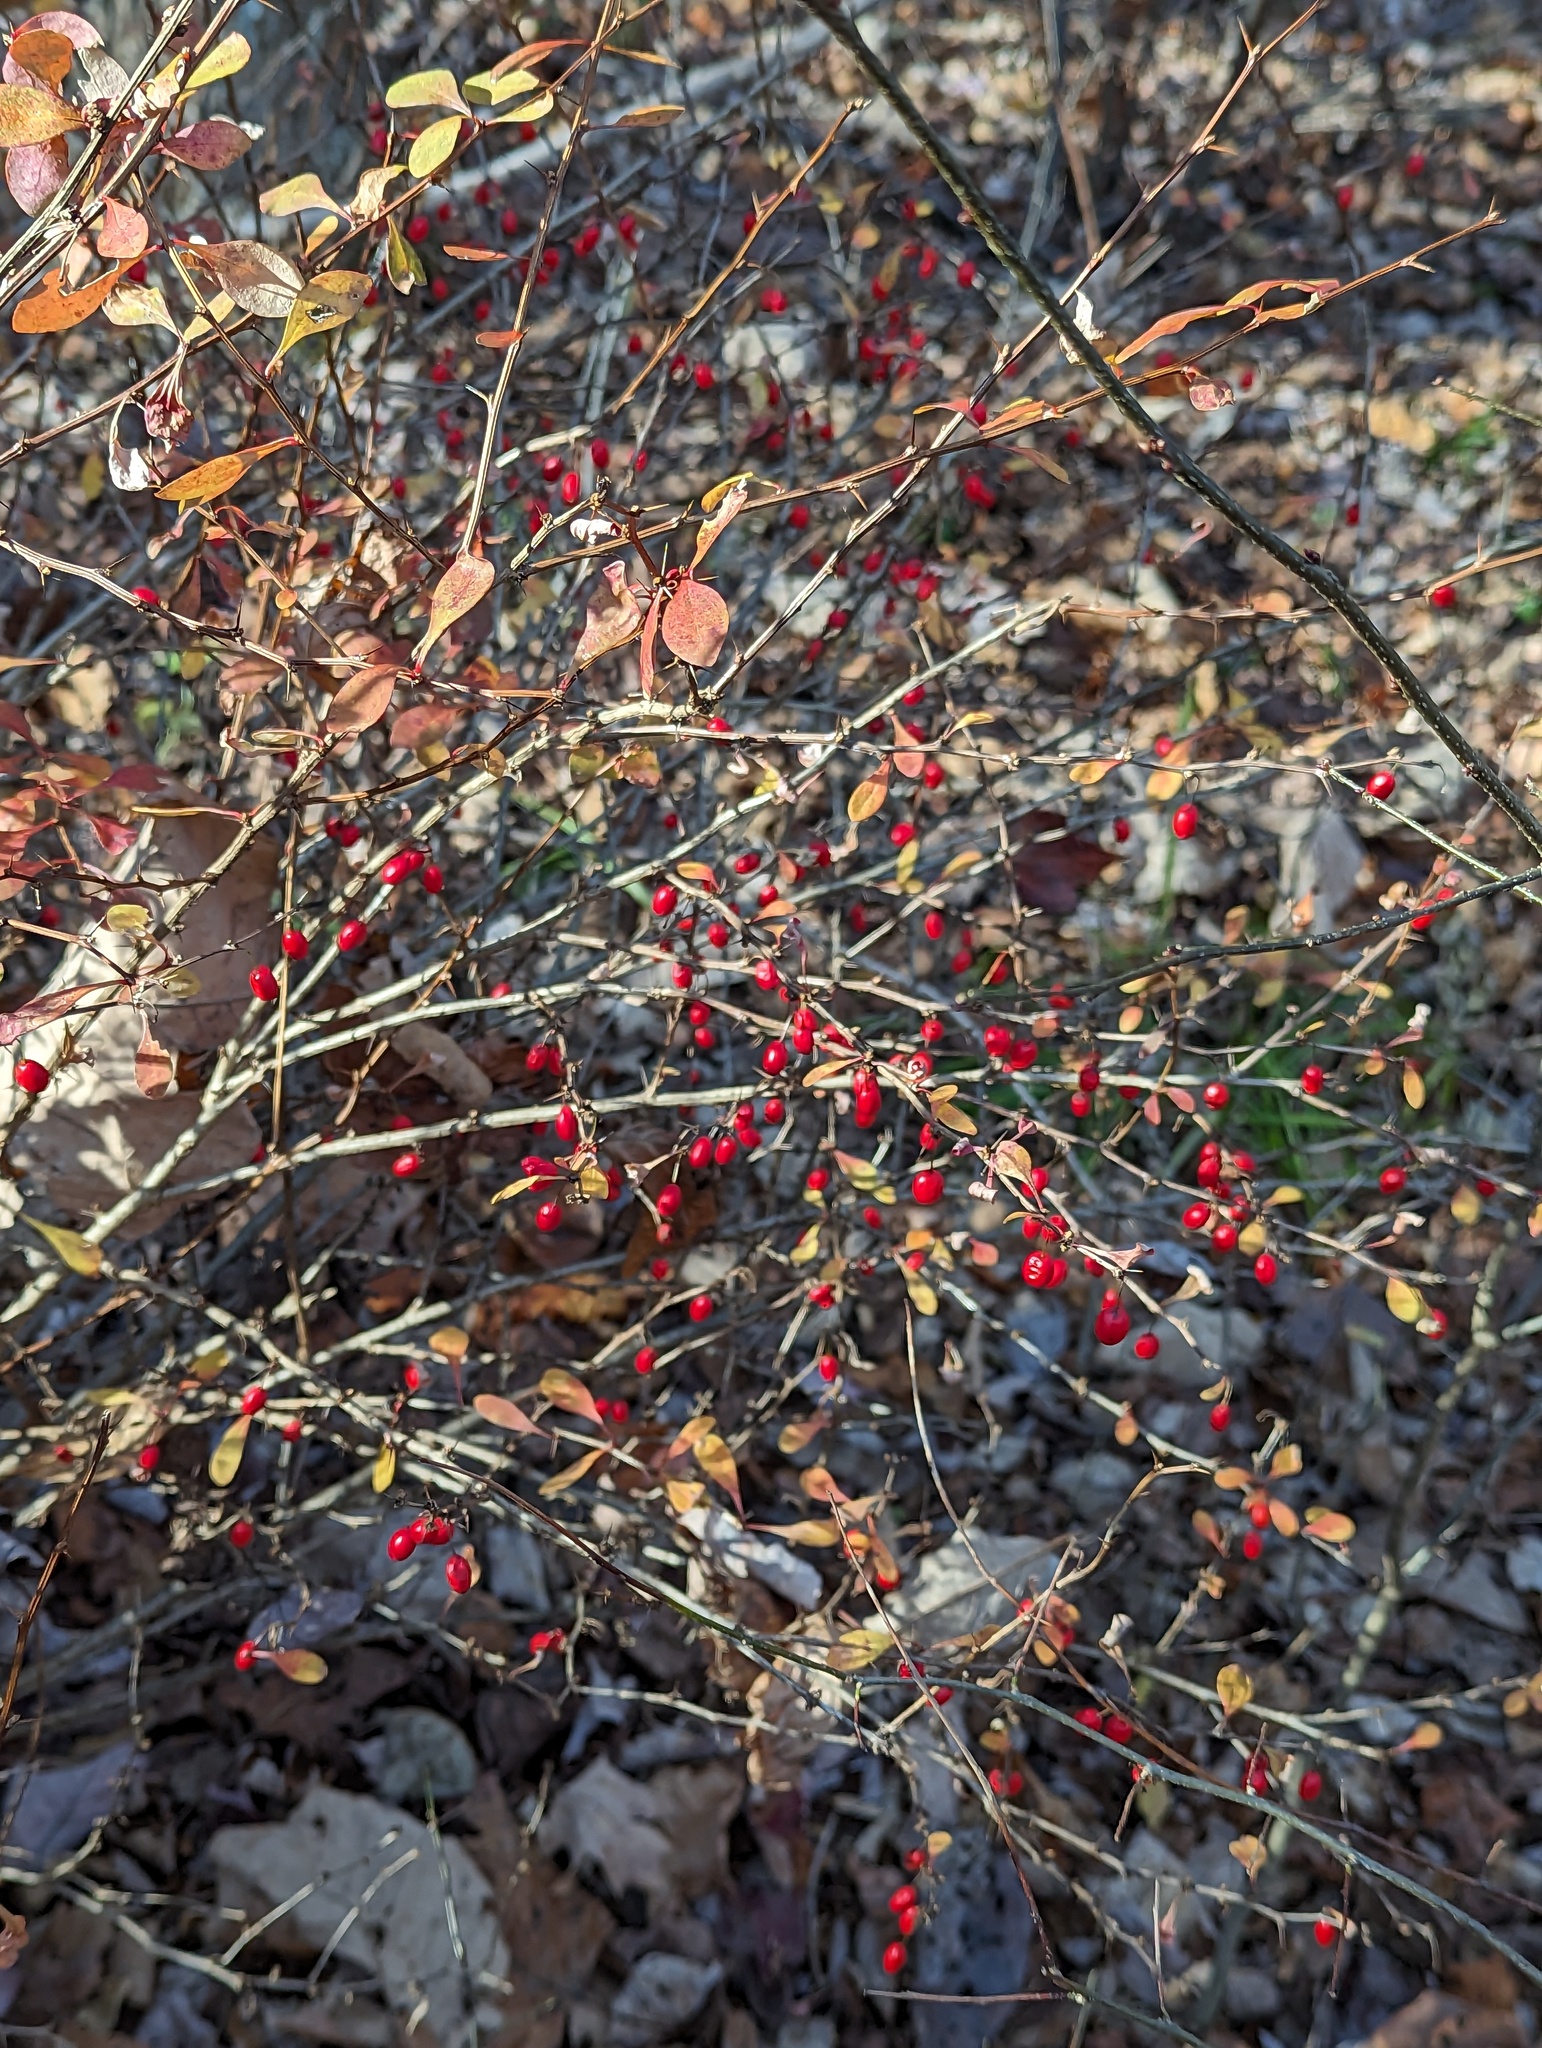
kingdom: Plantae
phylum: Tracheophyta
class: Magnoliopsida
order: Ranunculales
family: Berberidaceae
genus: Berberis
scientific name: Berberis thunbergii
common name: Japanese barberry
